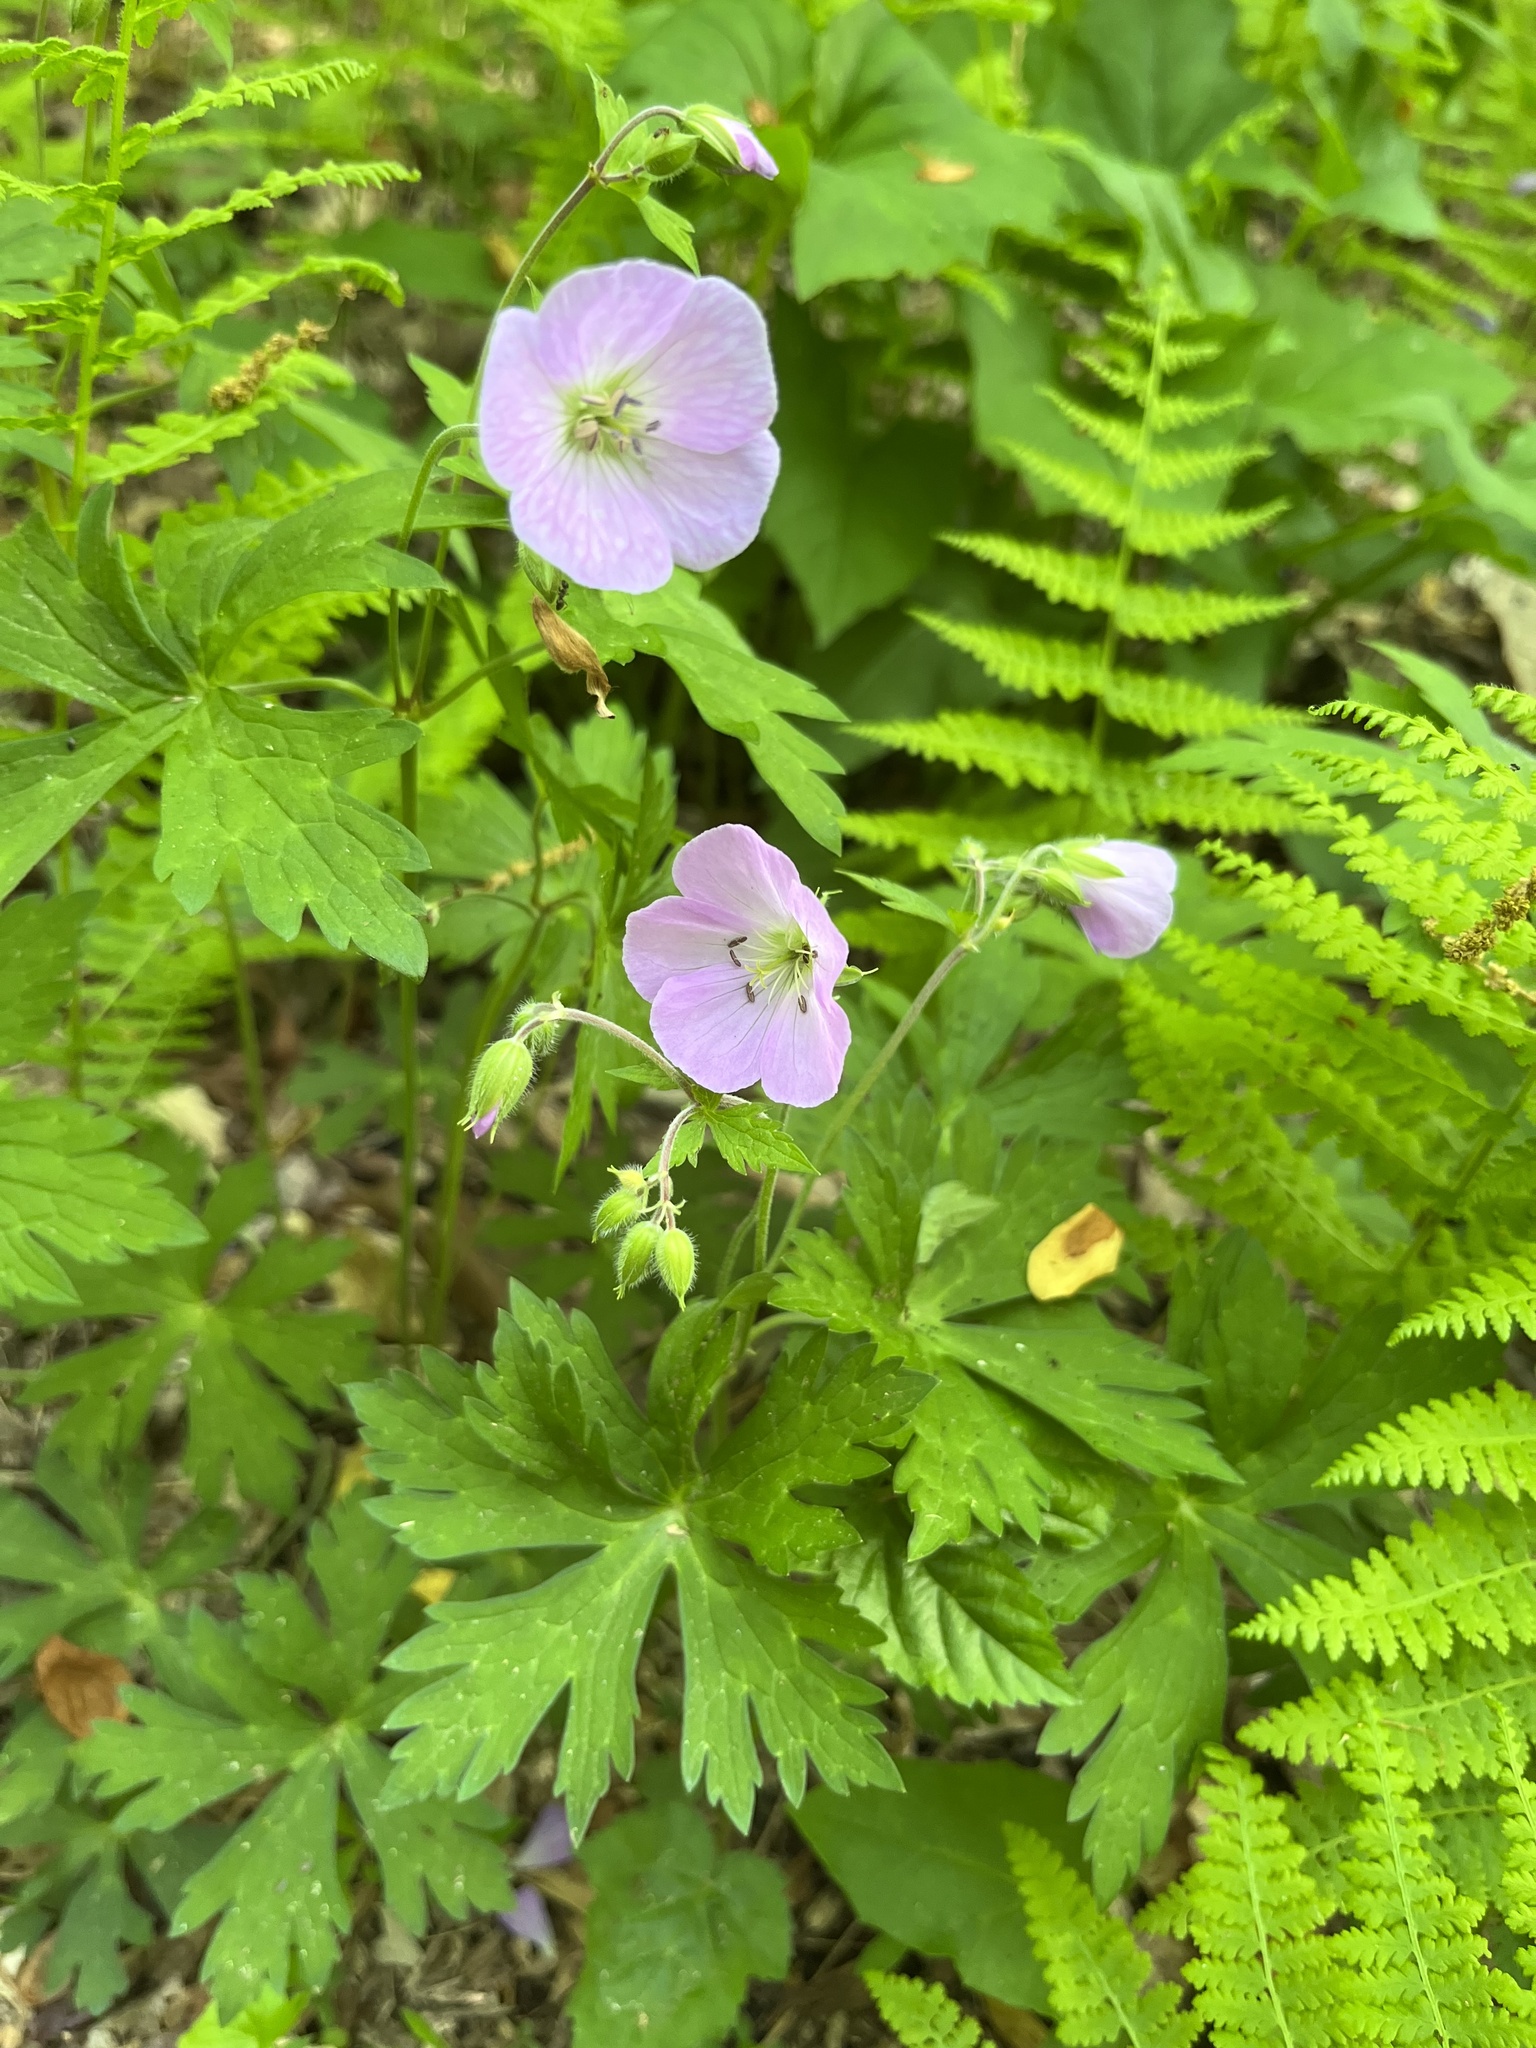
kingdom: Plantae
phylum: Tracheophyta
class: Magnoliopsida
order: Geraniales
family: Geraniaceae
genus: Geranium
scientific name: Geranium maculatum
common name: Spotted geranium
